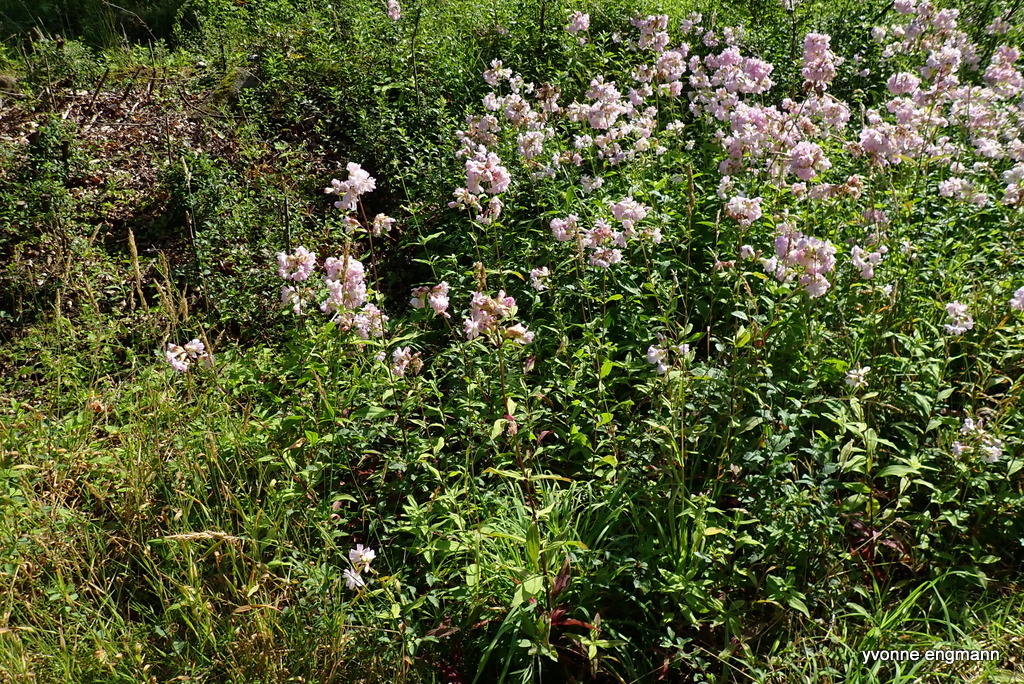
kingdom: Plantae
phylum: Tracheophyta
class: Magnoliopsida
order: Caryophyllales
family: Caryophyllaceae
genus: Saponaria
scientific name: Saponaria officinalis
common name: Soapwort
